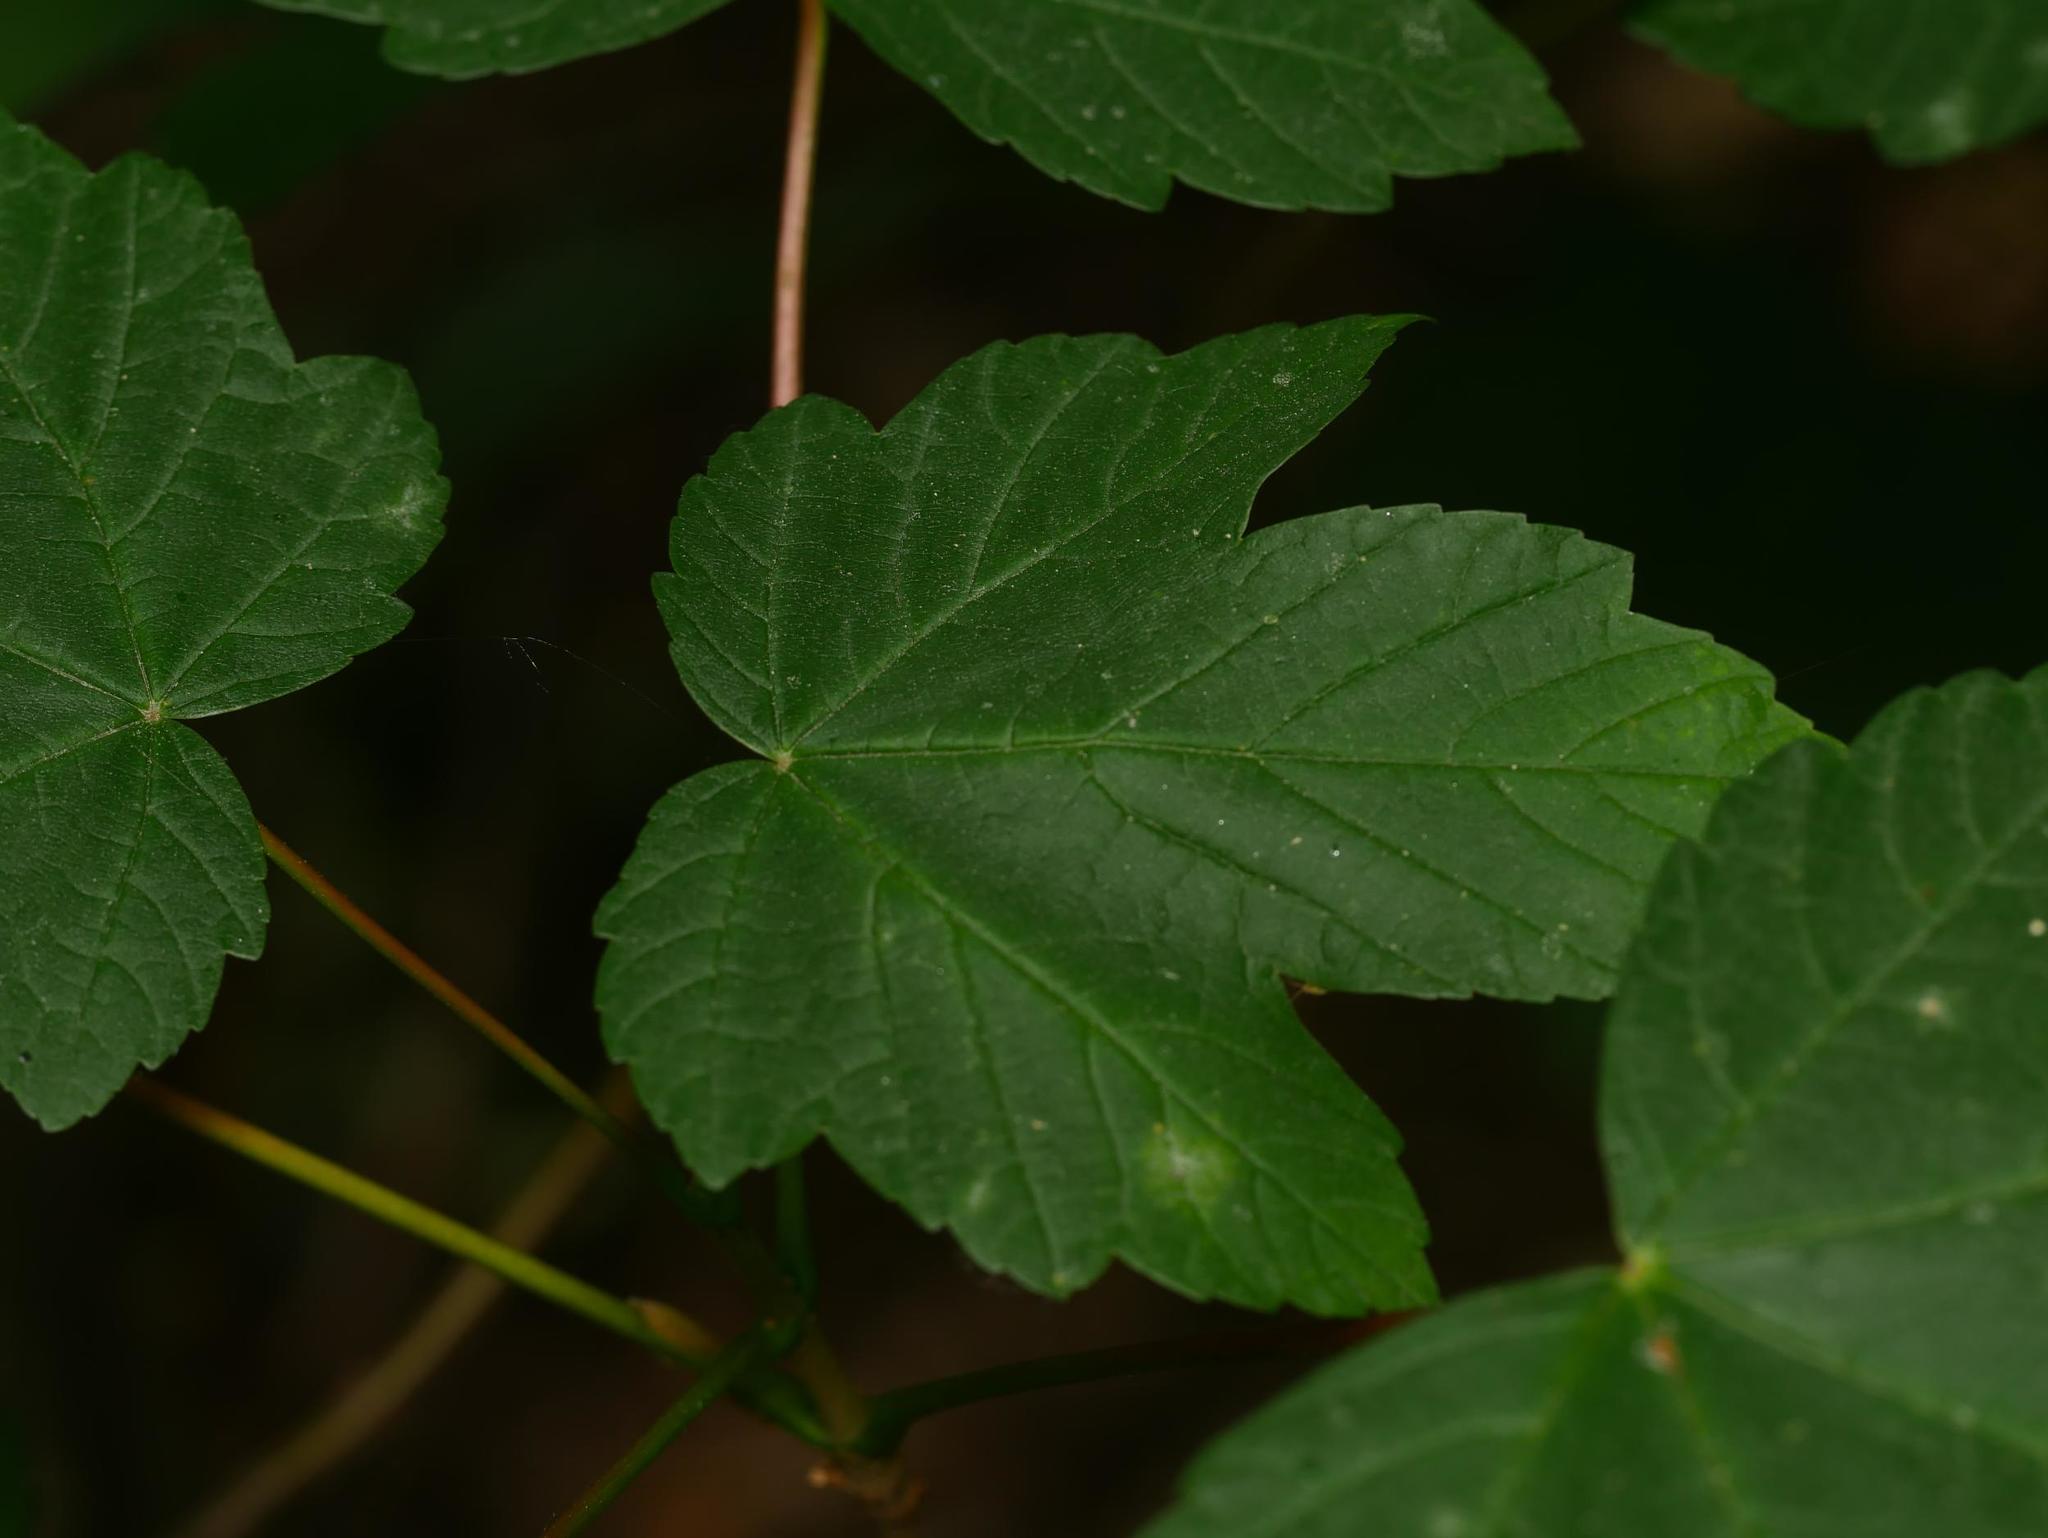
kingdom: Plantae
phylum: Tracheophyta
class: Magnoliopsida
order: Sapindales
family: Sapindaceae
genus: Acer
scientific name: Acer pseudoplatanus
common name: Sycamore
